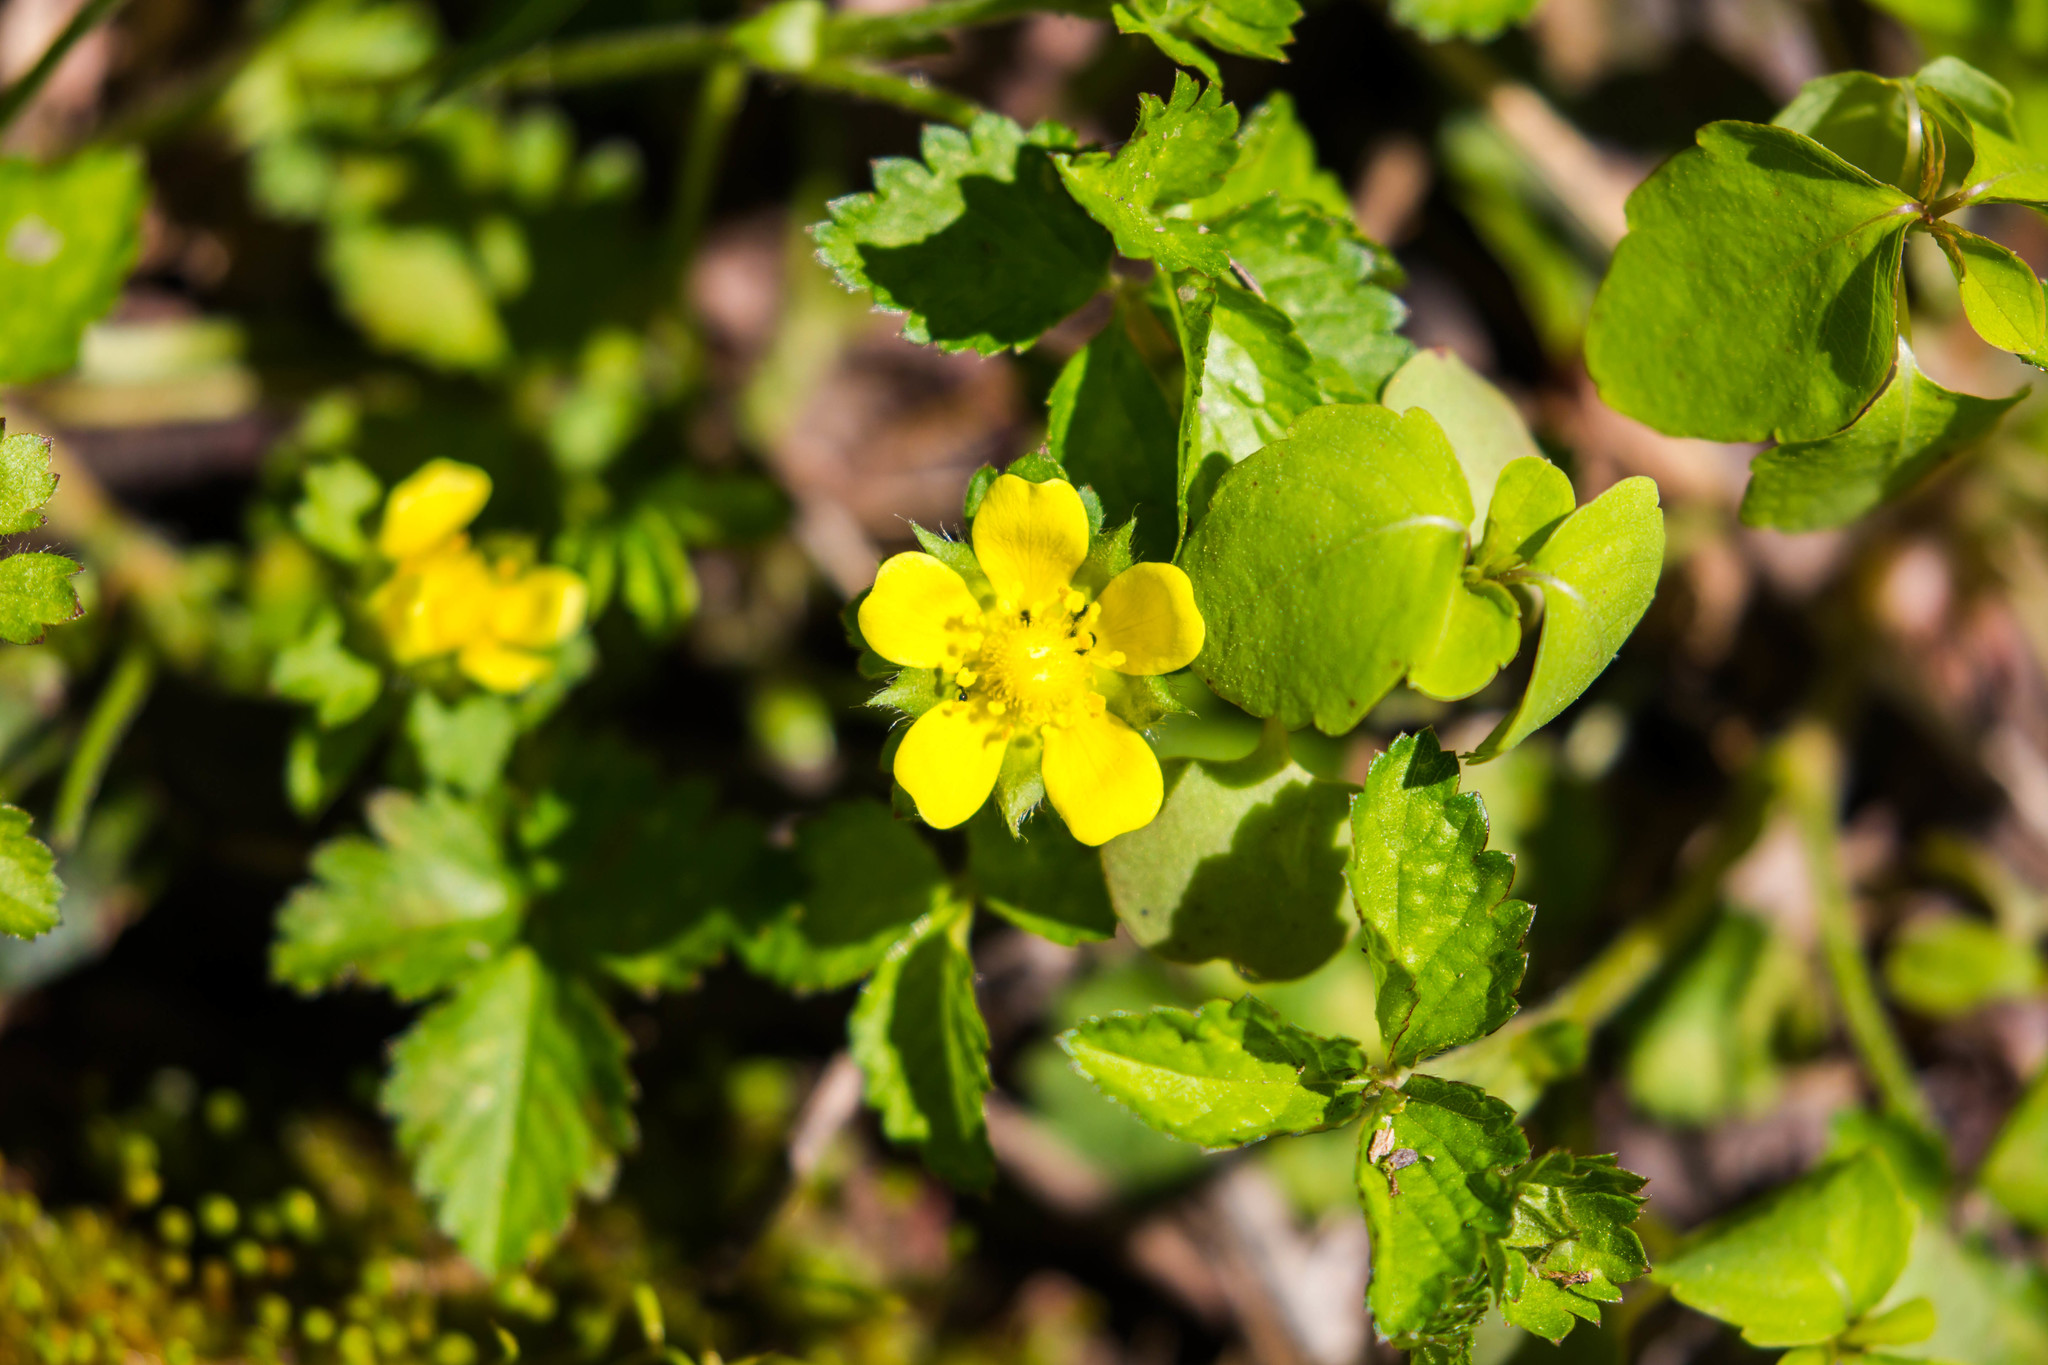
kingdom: Plantae
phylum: Tracheophyta
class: Magnoliopsida
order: Rosales
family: Rosaceae
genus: Potentilla
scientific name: Potentilla indica
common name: Yellow-flowered strawberry
